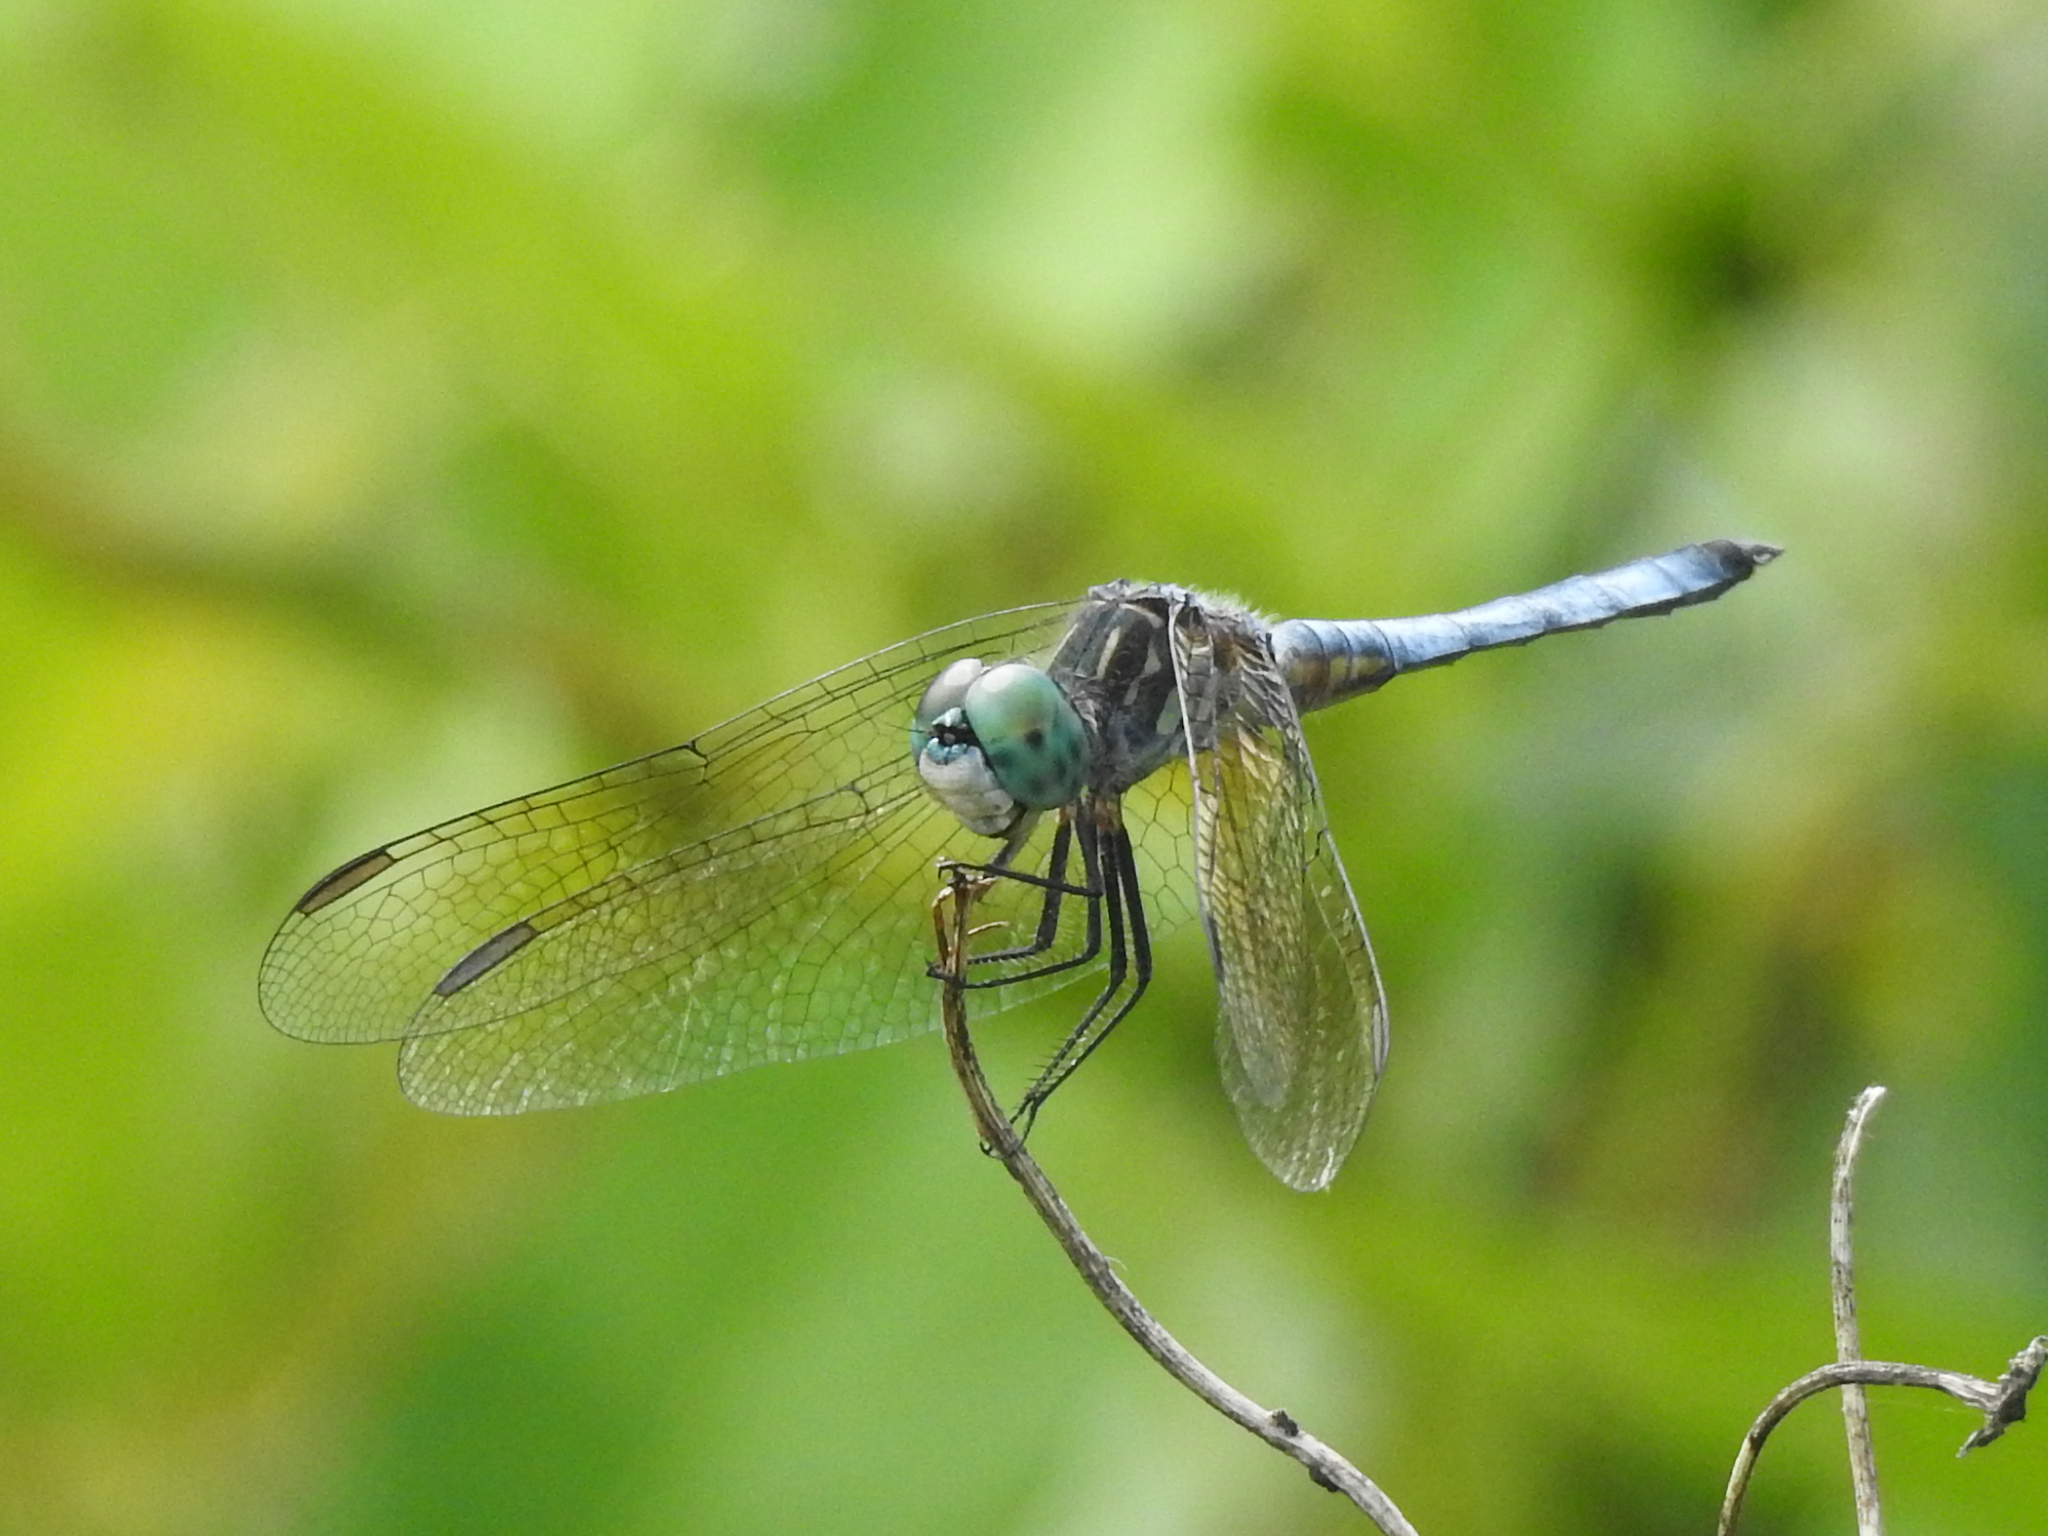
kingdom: Animalia
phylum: Arthropoda
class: Insecta
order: Odonata
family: Libellulidae
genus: Pachydiplax
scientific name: Pachydiplax longipennis
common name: Blue dasher
